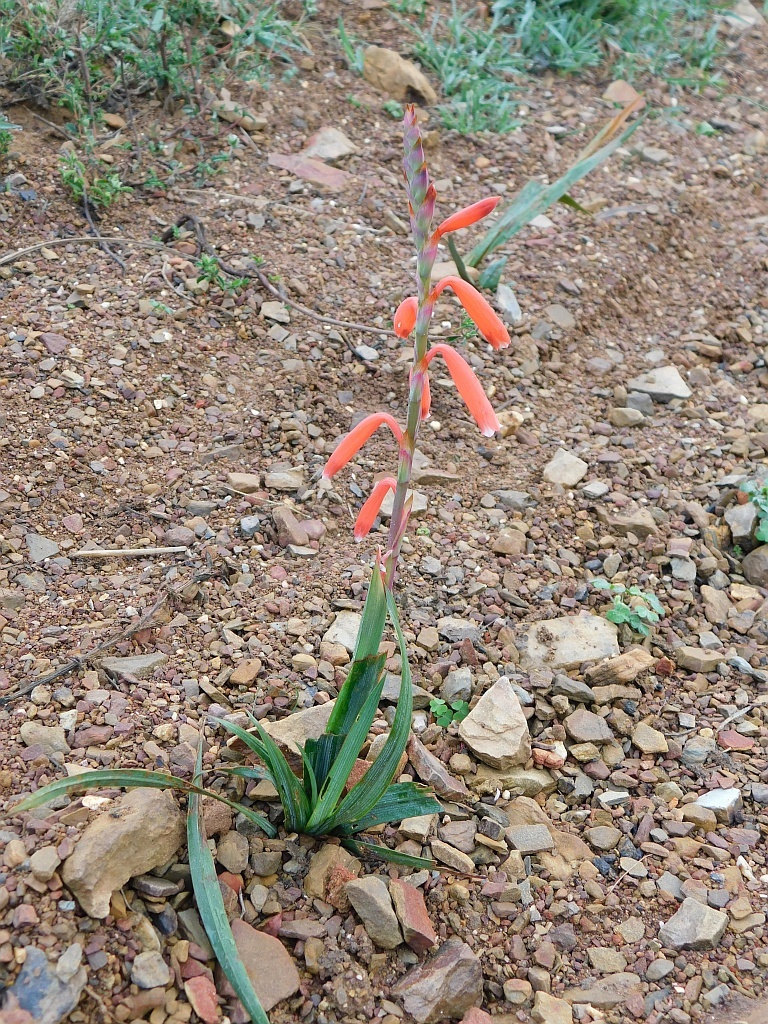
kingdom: Plantae
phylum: Tracheophyta
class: Liliopsida
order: Asparagales
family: Iridaceae
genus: Watsonia
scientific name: Watsonia aletroides
